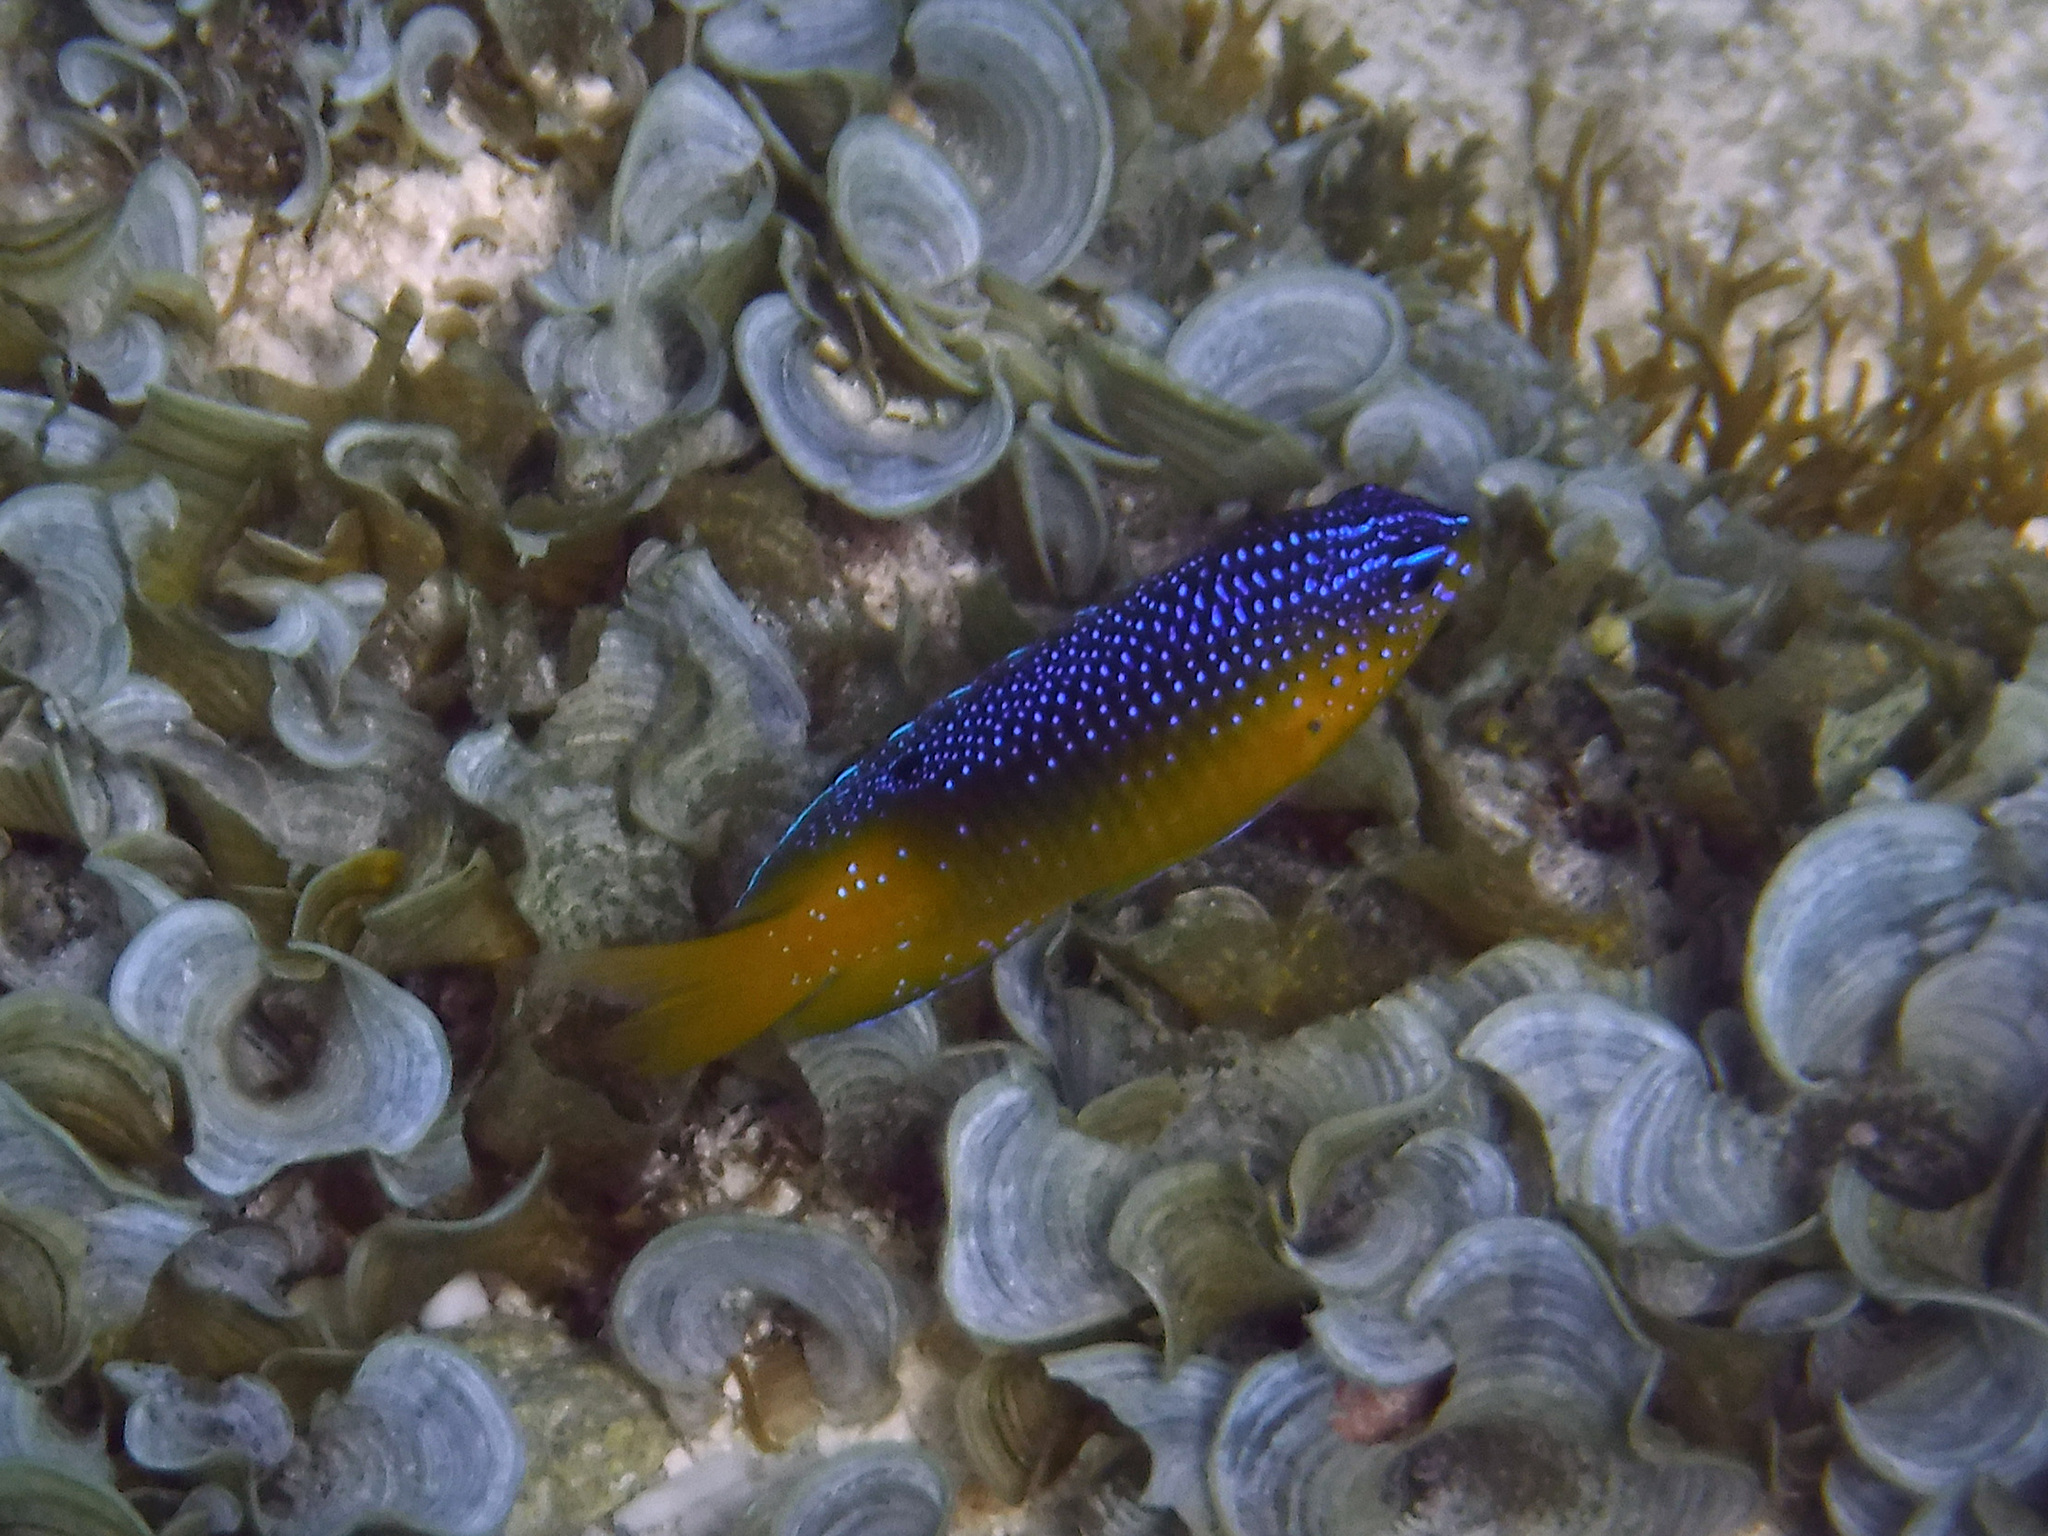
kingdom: Animalia
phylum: Chordata
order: Perciformes
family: Pomacentridae
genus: Stegastes
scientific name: Stegastes leucostictus
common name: Beaugregory
